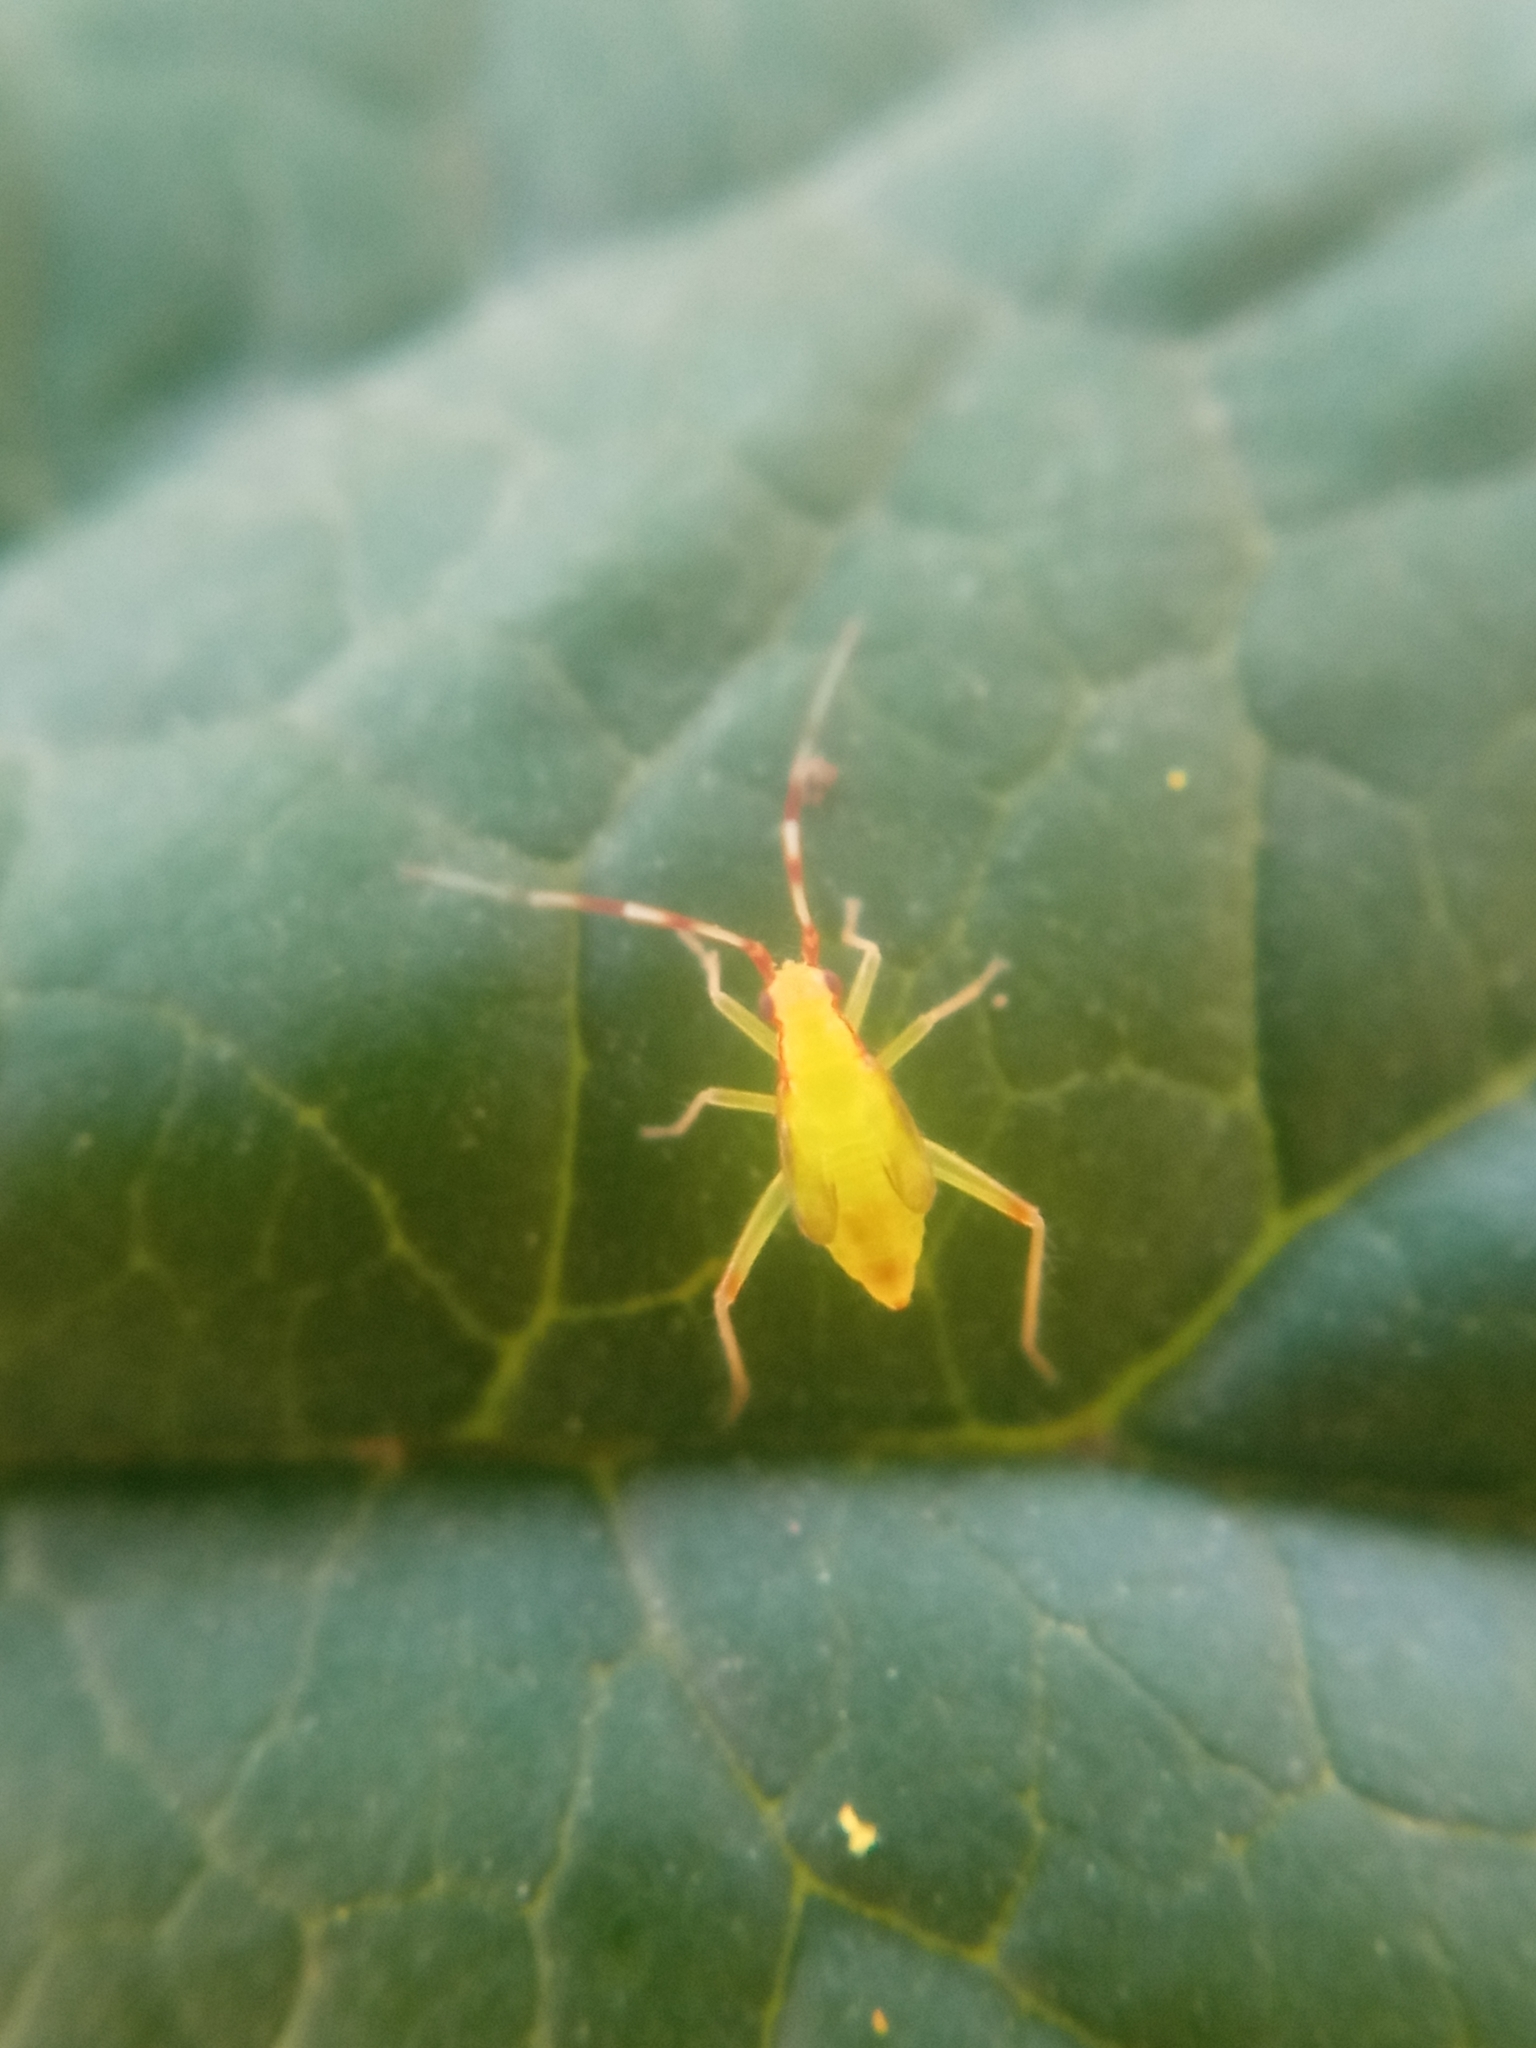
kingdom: Animalia
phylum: Arthropoda
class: Insecta
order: Hemiptera
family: Miridae
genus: Campyloneura
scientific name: Campyloneura virgula
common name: Predatory bug
